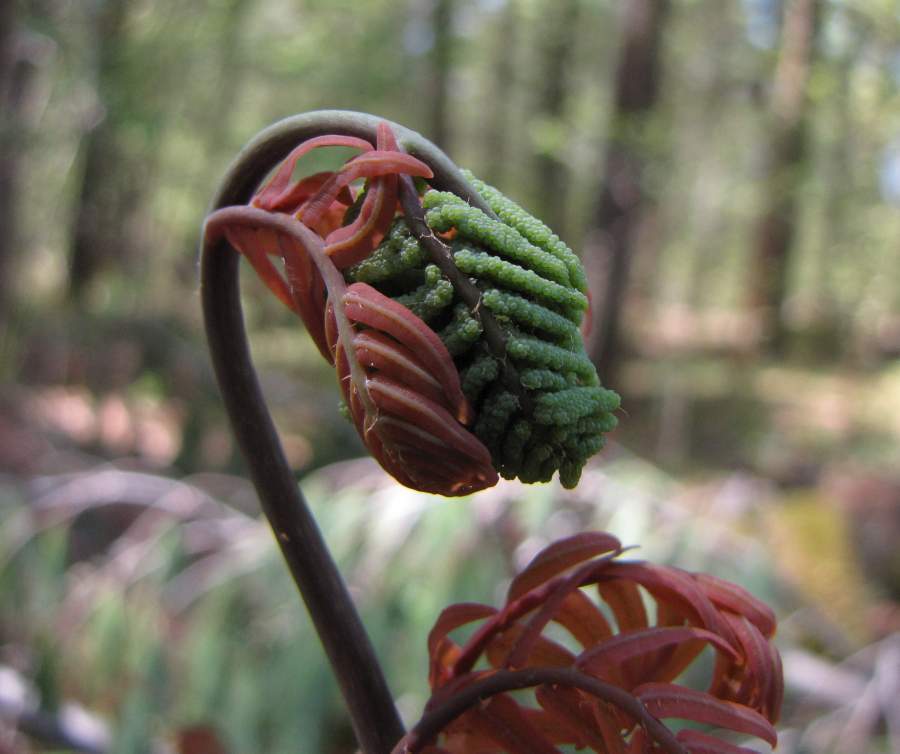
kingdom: Plantae
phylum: Tracheophyta
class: Polypodiopsida
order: Osmundales
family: Osmundaceae
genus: Osmunda
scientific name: Osmunda spectabilis
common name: American royal fern
